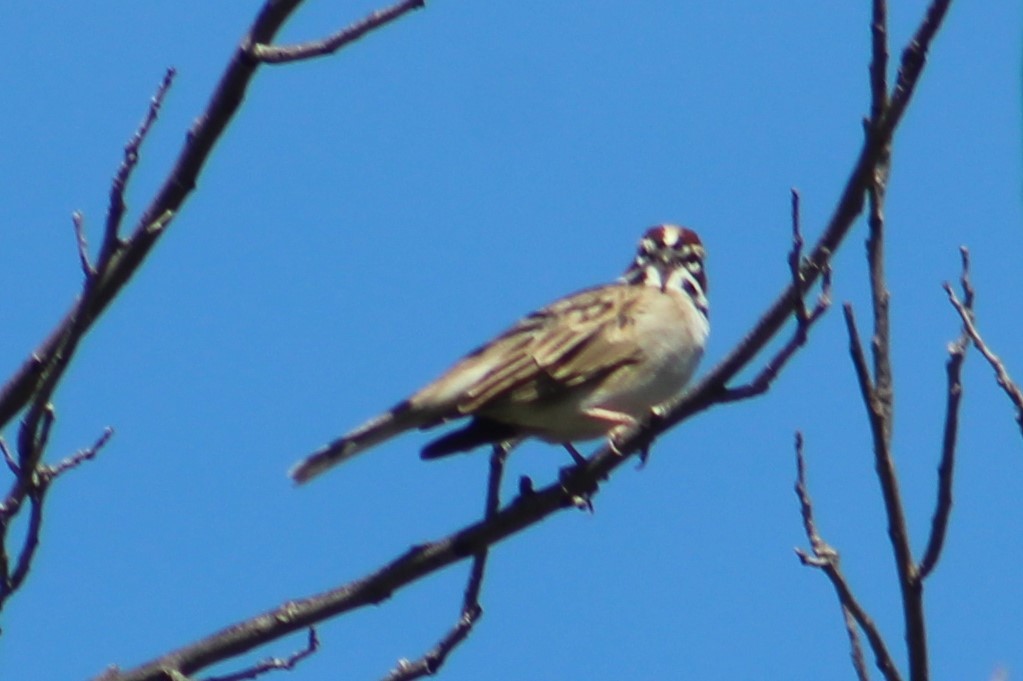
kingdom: Animalia
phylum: Chordata
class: Aves
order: Passeriformes
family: Passerellidae
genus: Chondestes
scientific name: Chondestes grammacus
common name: Lark sparrow
